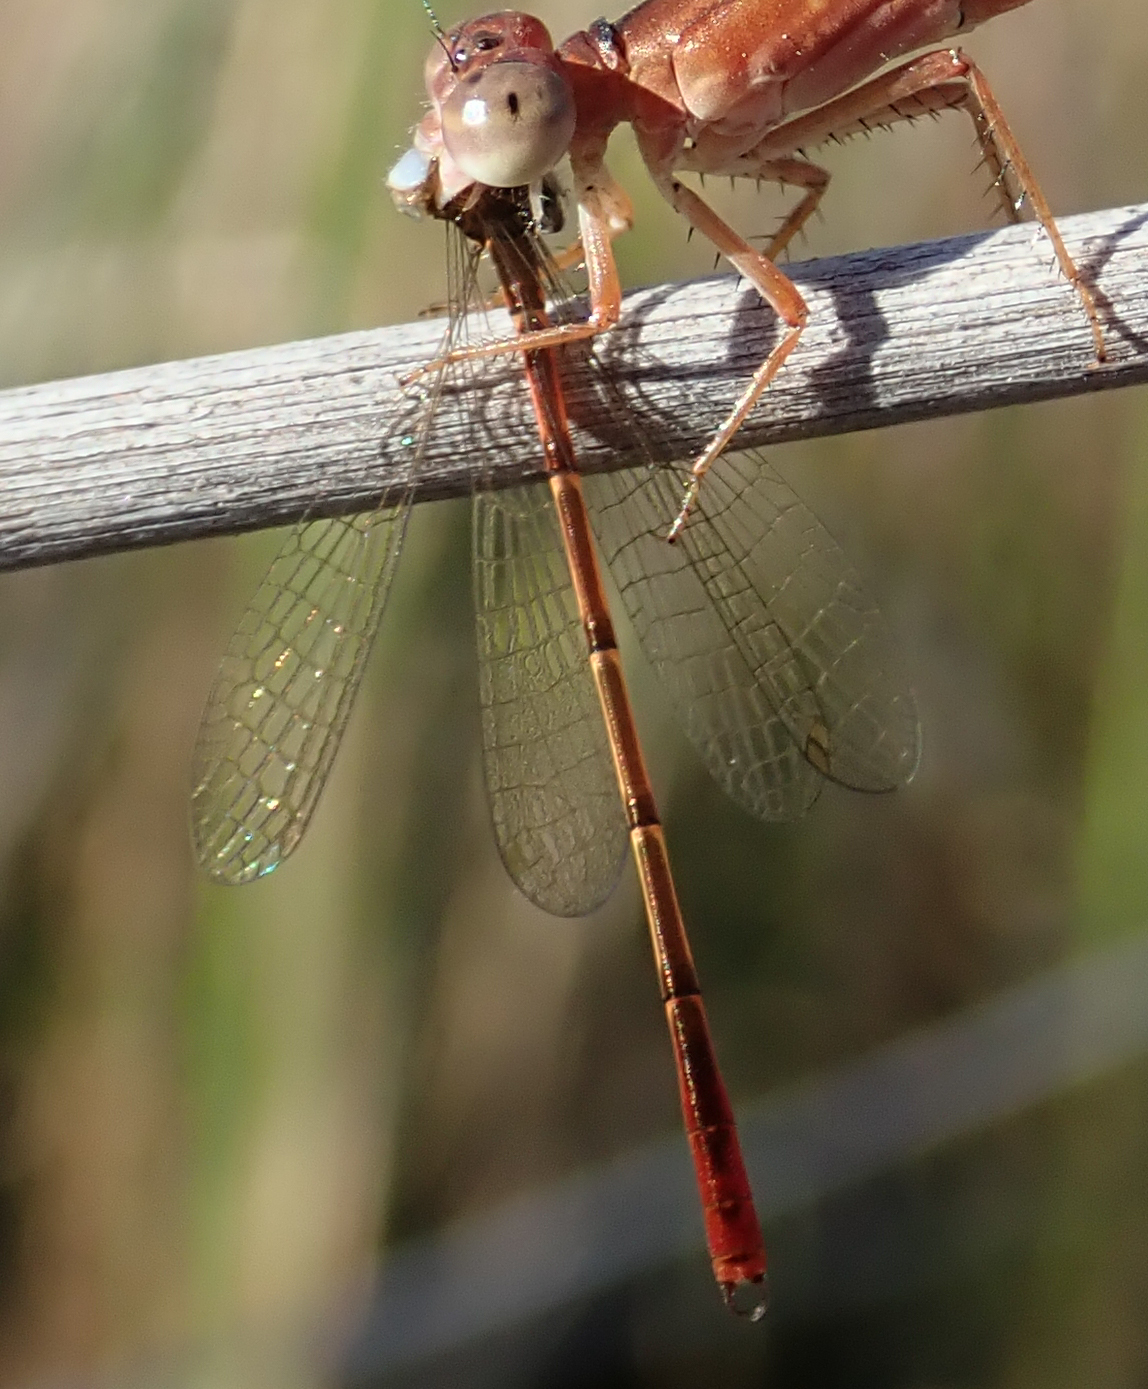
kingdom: Animalia
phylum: Arthropoda
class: Insecta
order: Odonata
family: Coenagrionidae
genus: Agriocnemis
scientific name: Agriocnemis victoria
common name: Lesser pincer-tailed wisp
